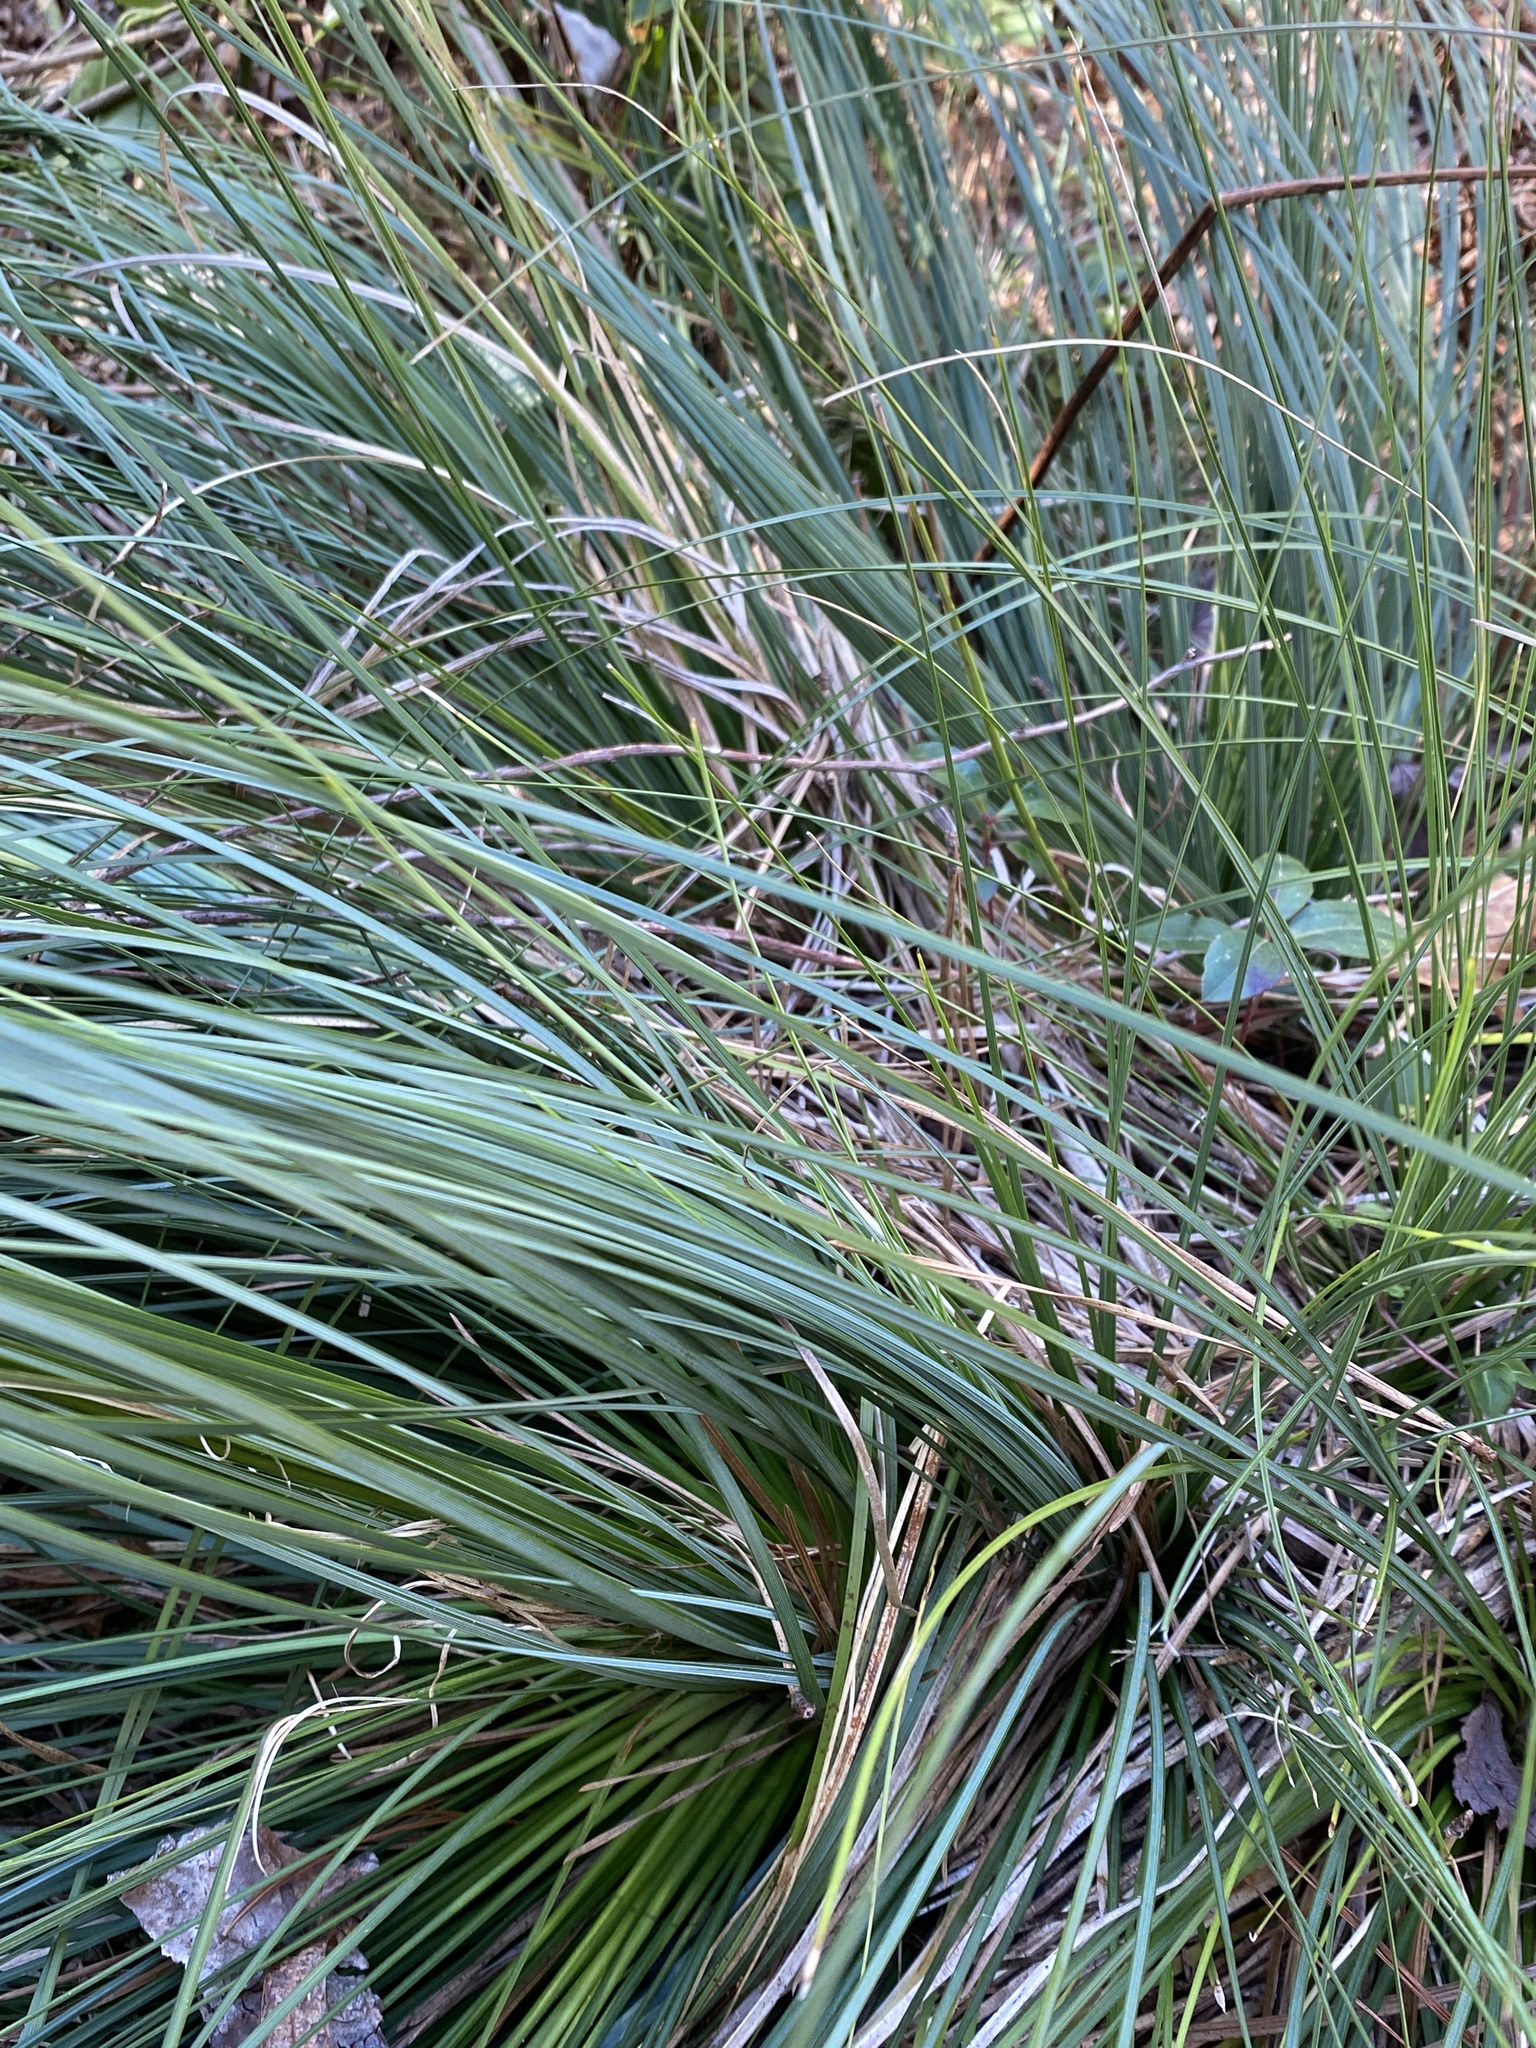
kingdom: Plantae
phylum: Tracheophyta
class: Liliopsida
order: Liliales
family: Melanthiaceae
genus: Xerophyllum
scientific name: Xerophyllum asphodeloides
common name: Mountain-asphodel
